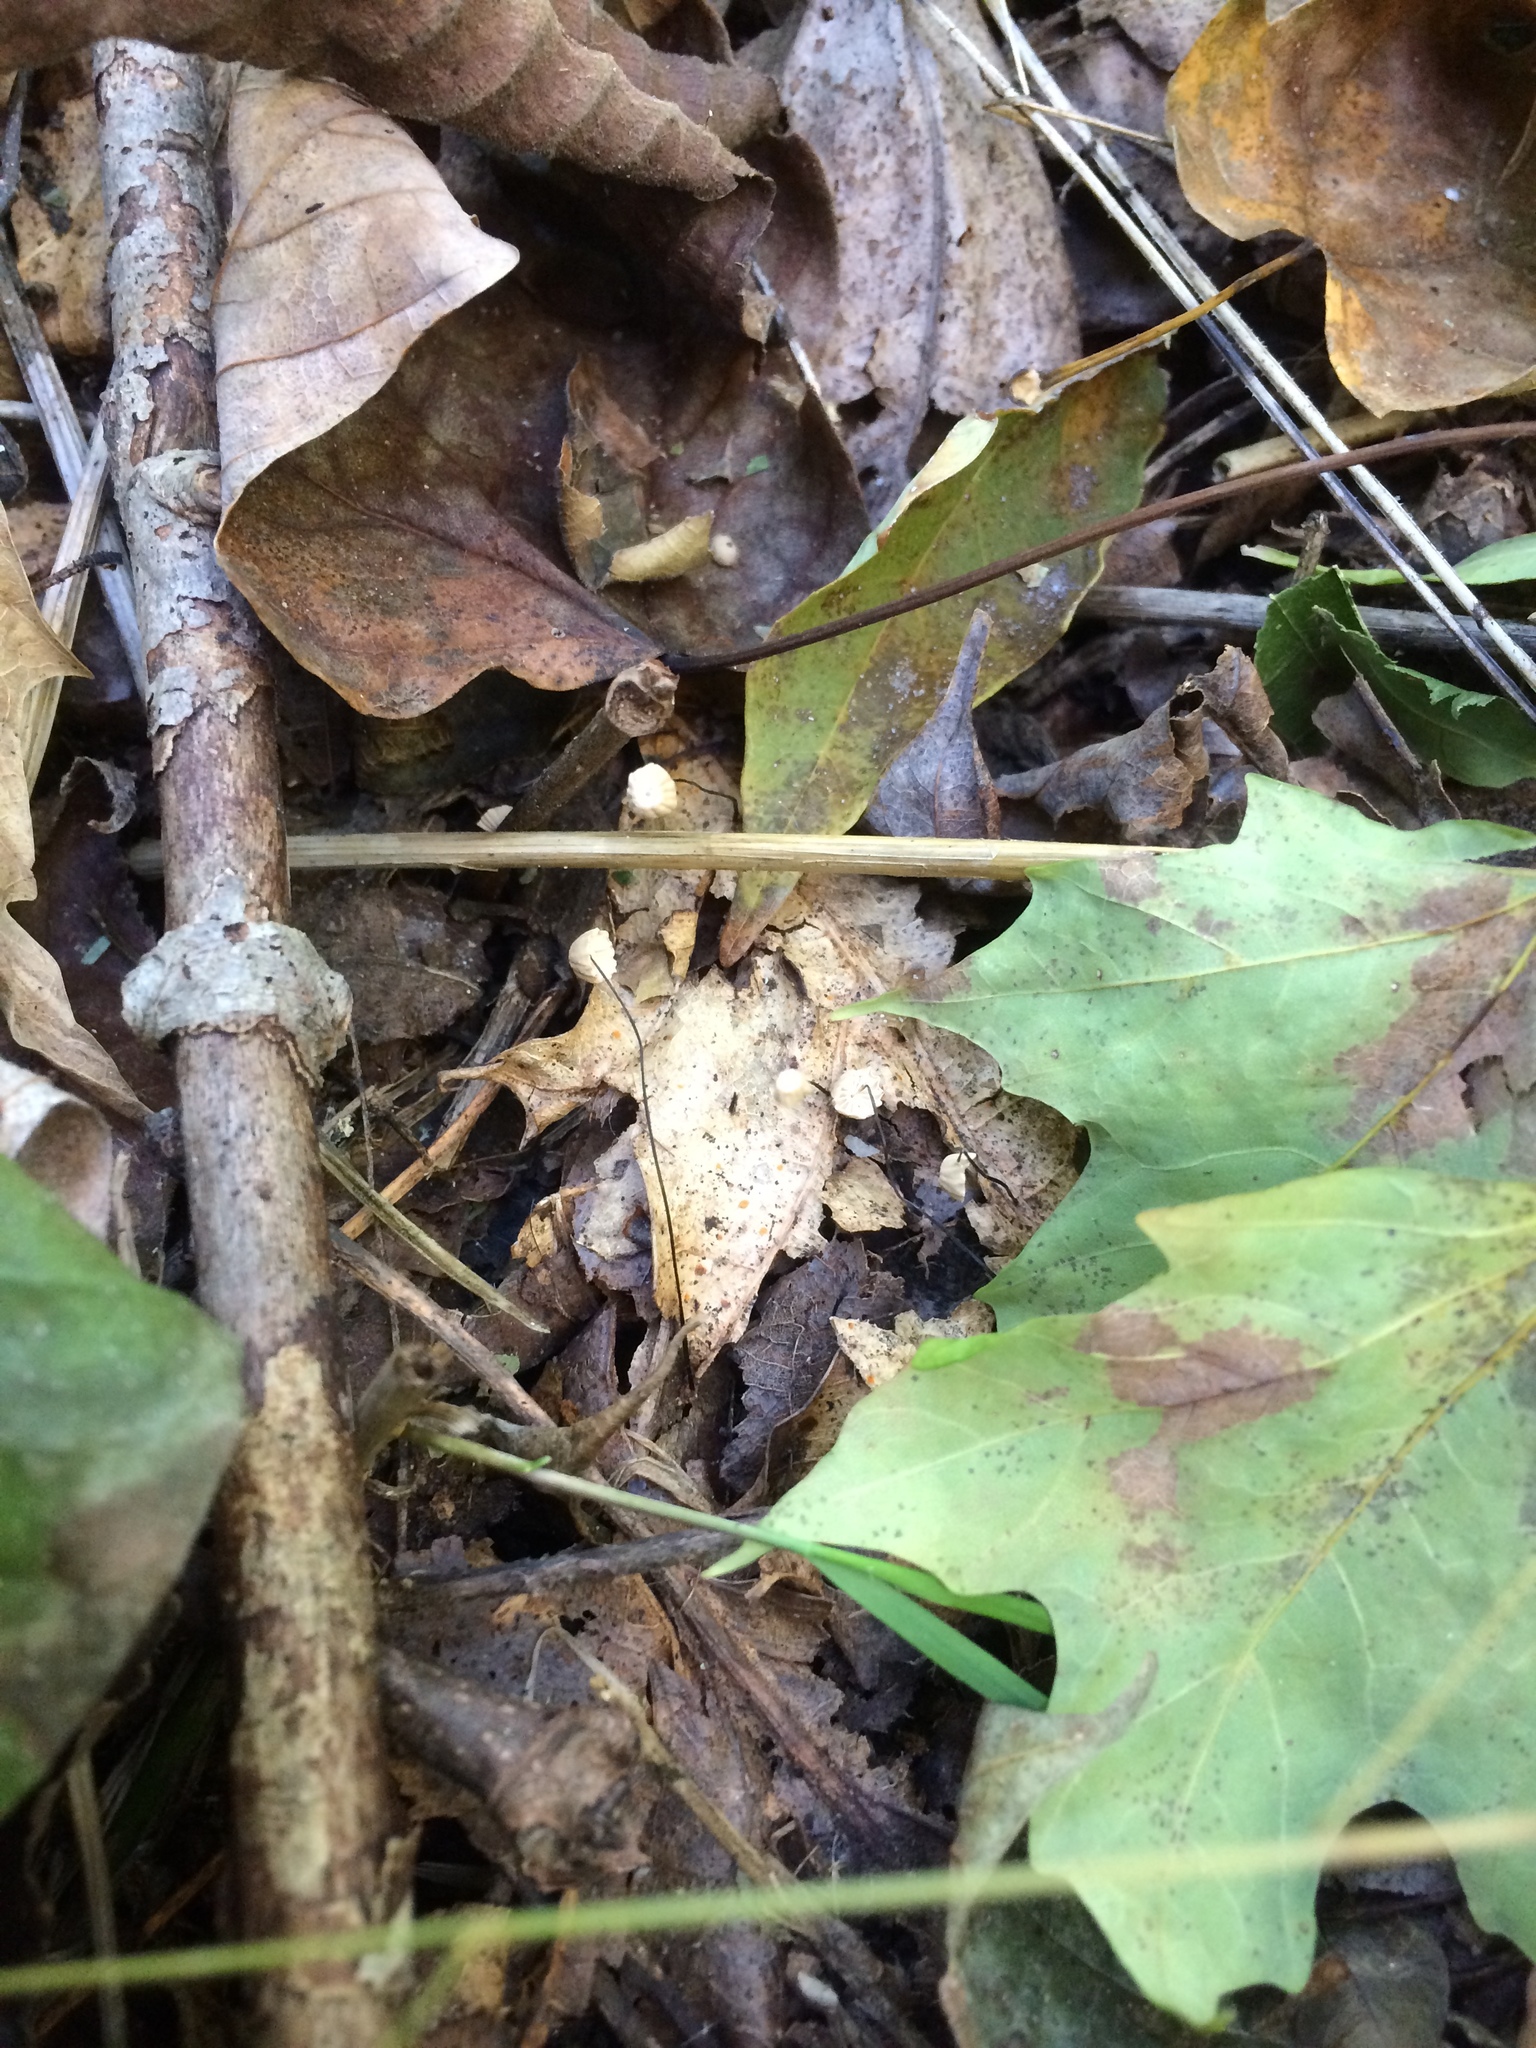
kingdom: Fungi
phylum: Basidiomycota
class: Agaricomycetes
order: Agaricales
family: Marasmiaceae
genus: Marasmius
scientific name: Marasmius capillaris
